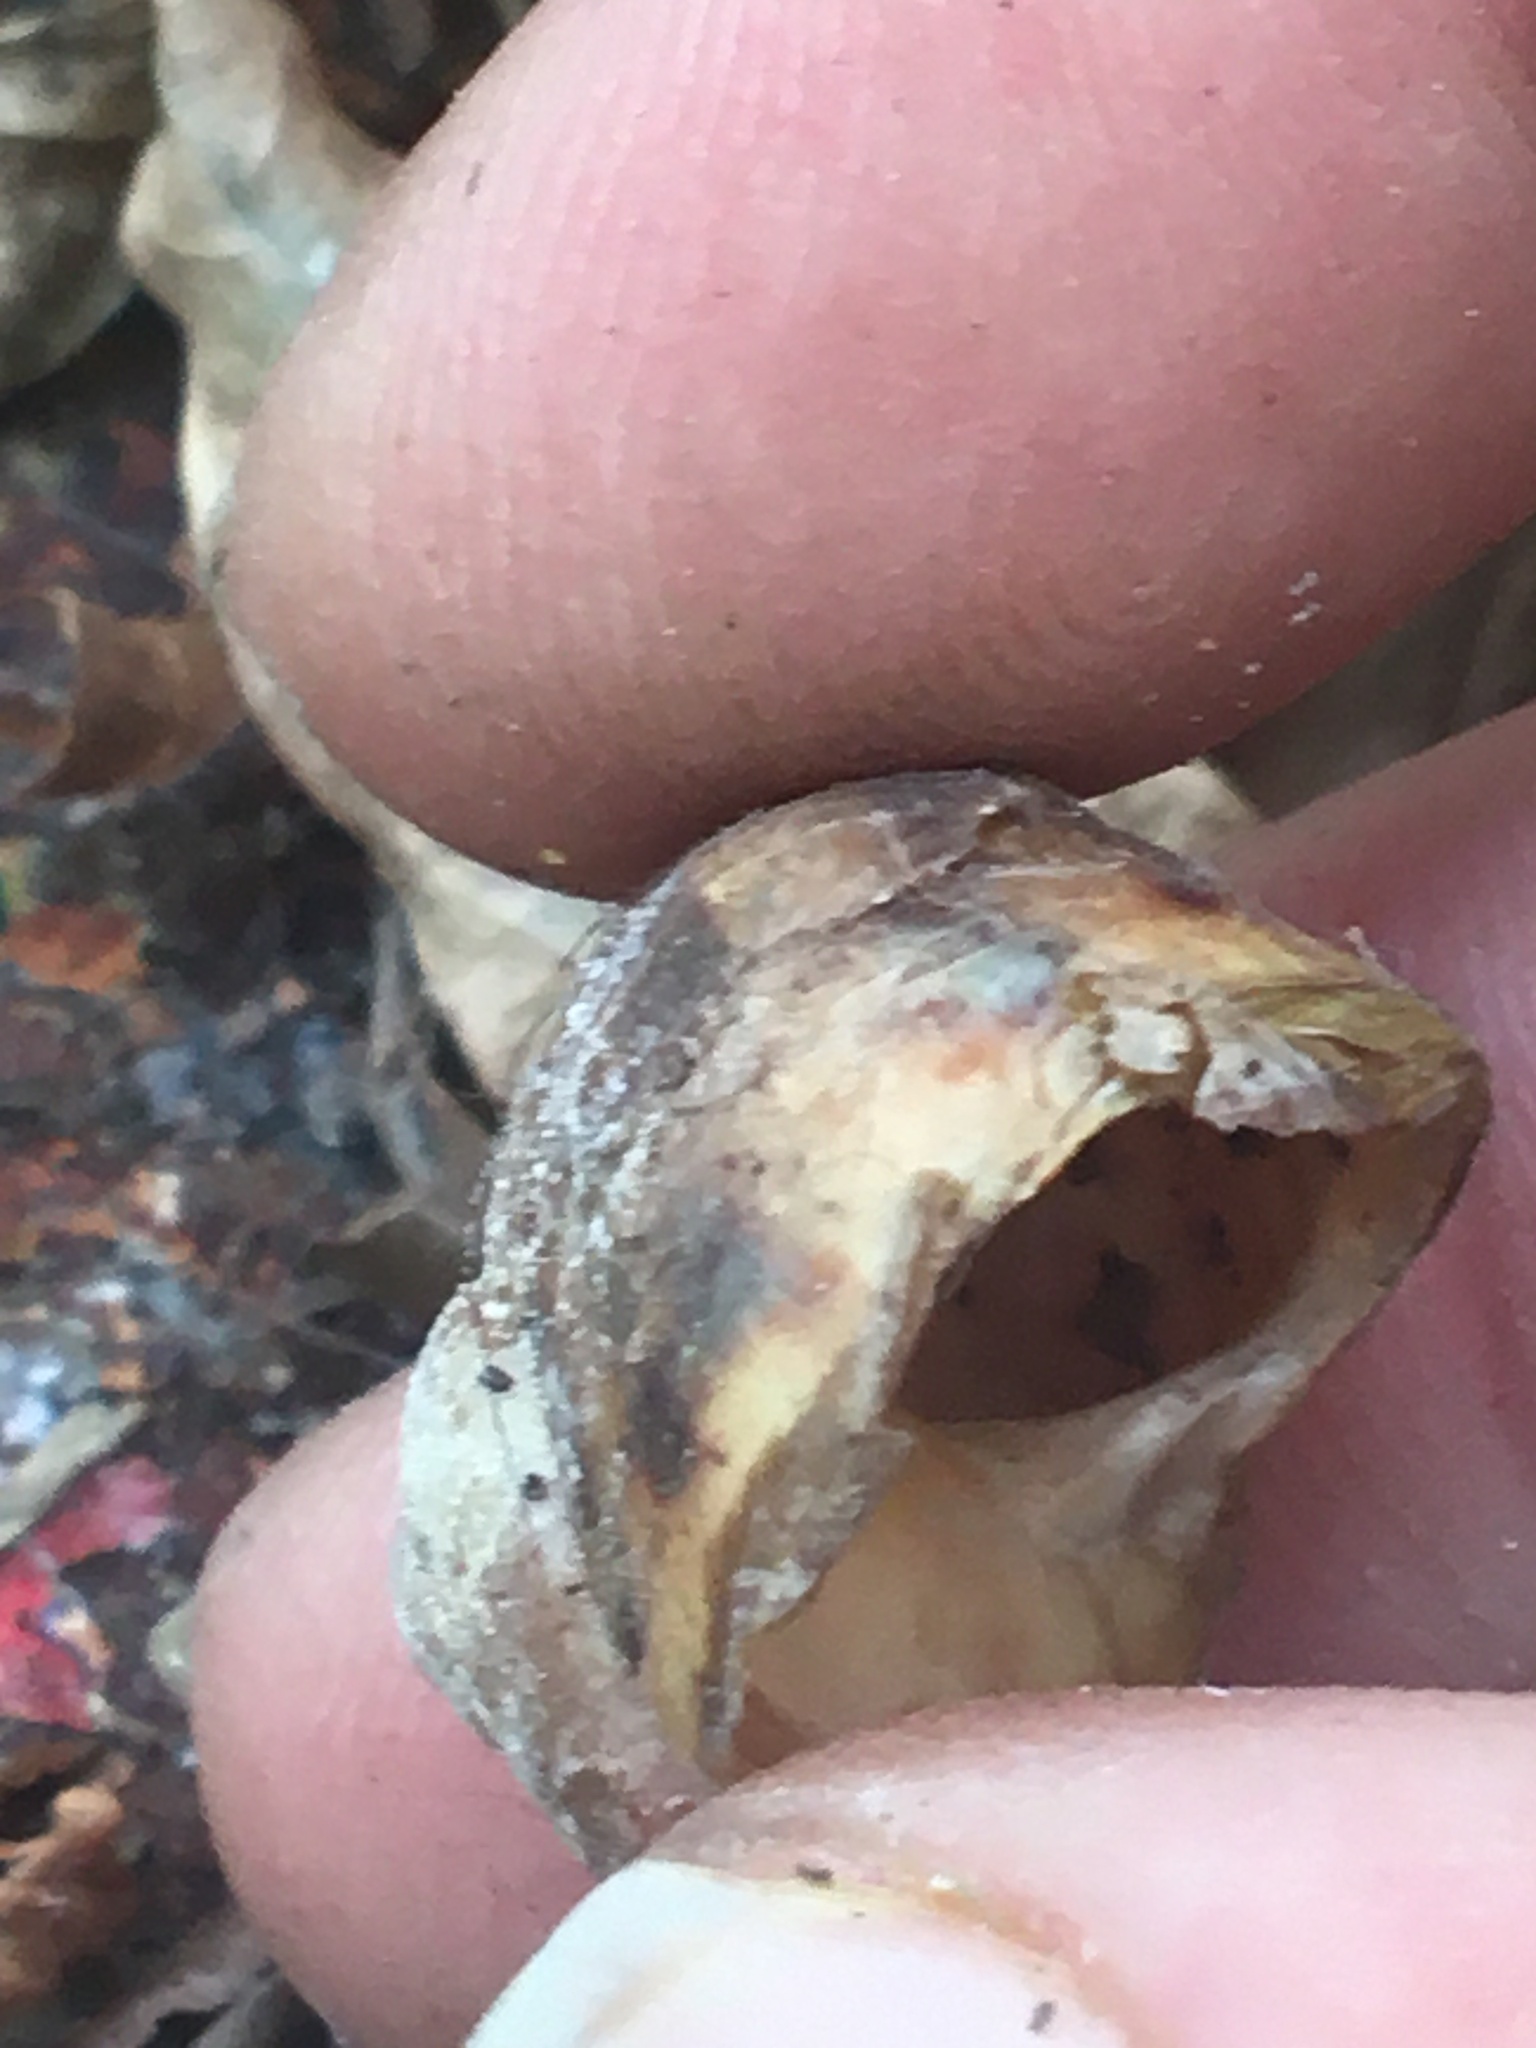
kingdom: Animalia
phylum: Mollusca
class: Gastropoda
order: Stylommatophora
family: Helicidae
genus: Cornu
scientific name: Cornu aspersum
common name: Brown garden snail
